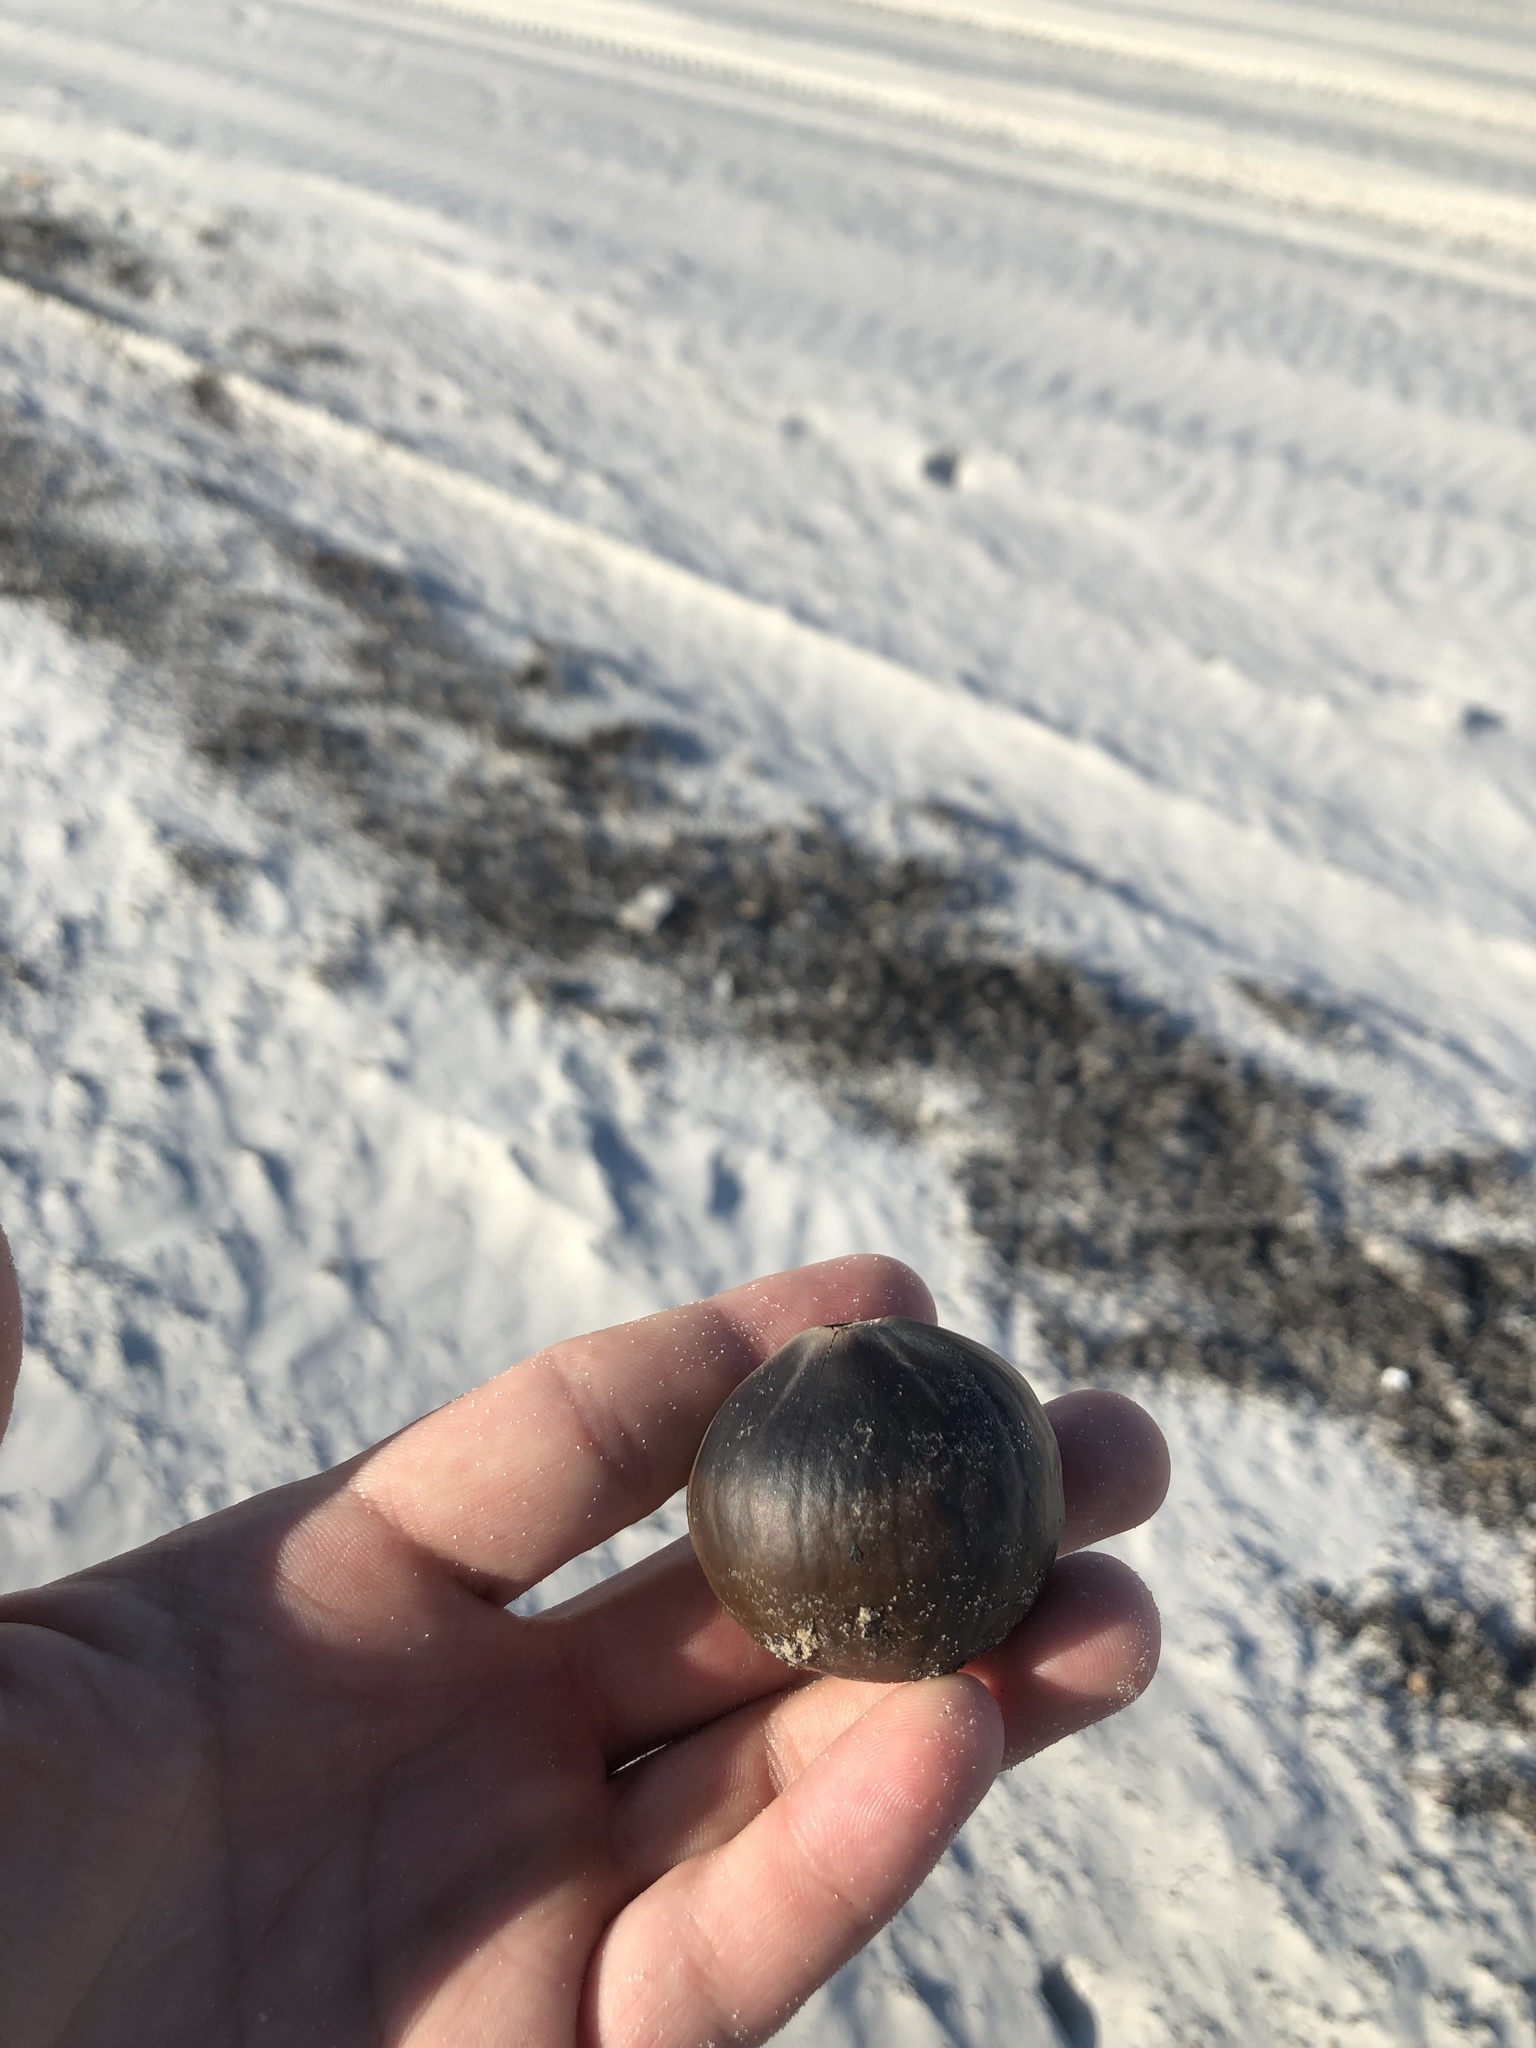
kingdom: Plantae
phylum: Tracheophyta
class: Liliopsida
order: Arecales
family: Arecaceae
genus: Manicaria
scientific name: Manicaria saccifera
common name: Sea coconut
